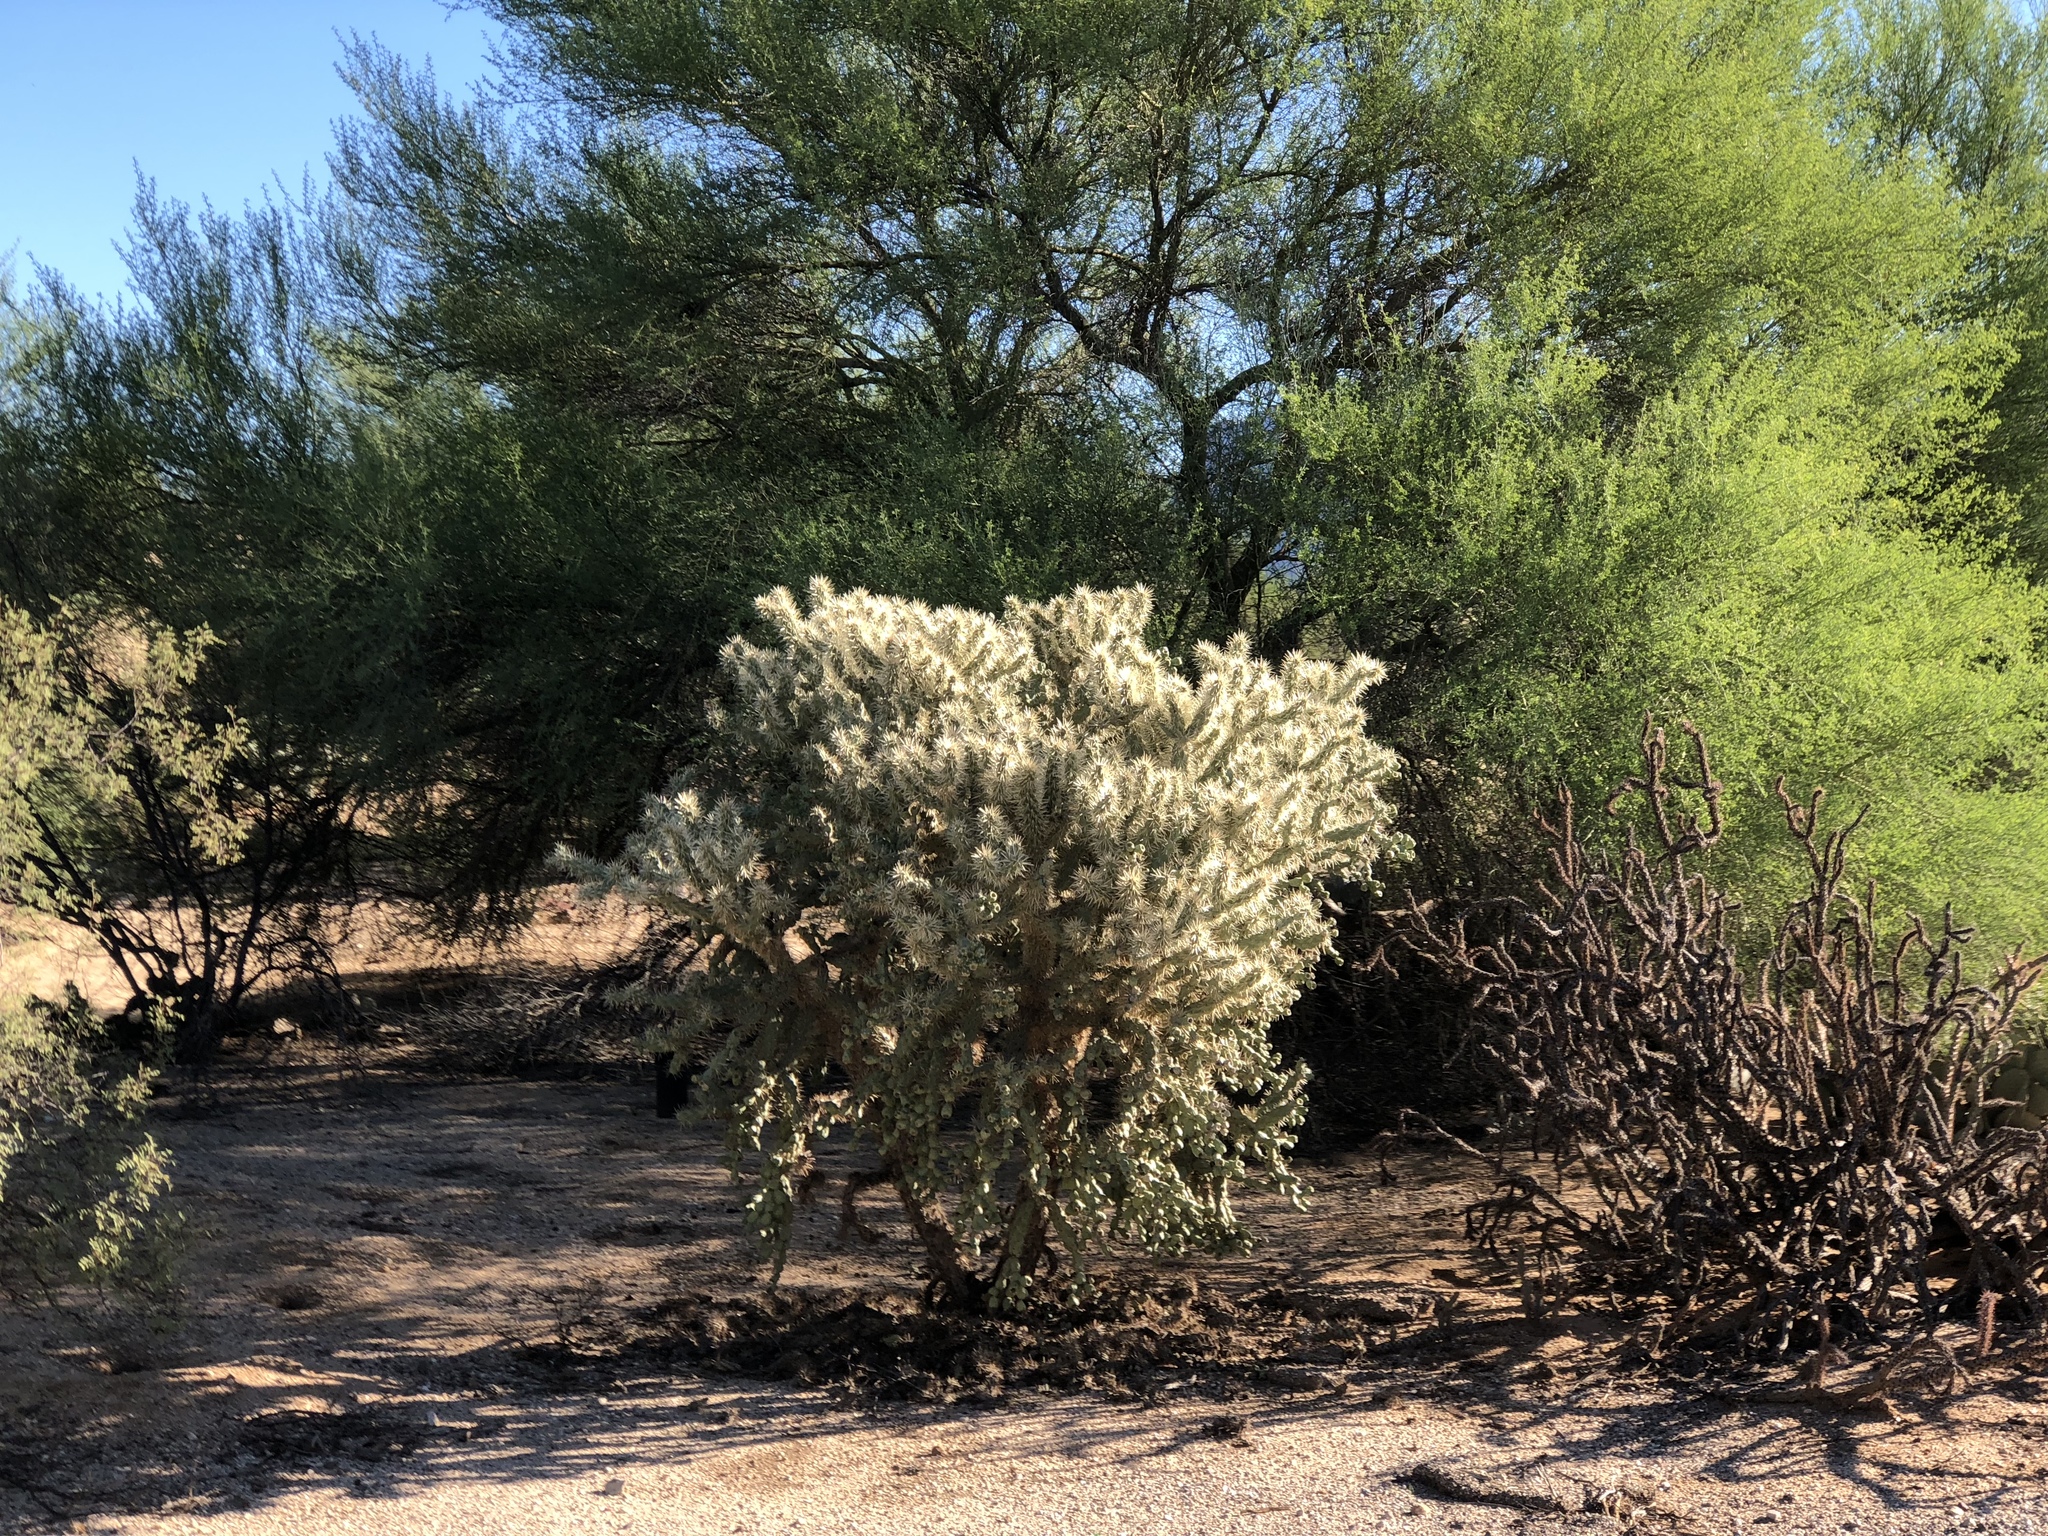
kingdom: Plantae
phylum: Tracheophyta
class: Magnoliopsida
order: Caryophyllales
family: Cactaceae
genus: Cylindropuntia
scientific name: Cylindropuntia fulgida
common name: Jumping cholla
